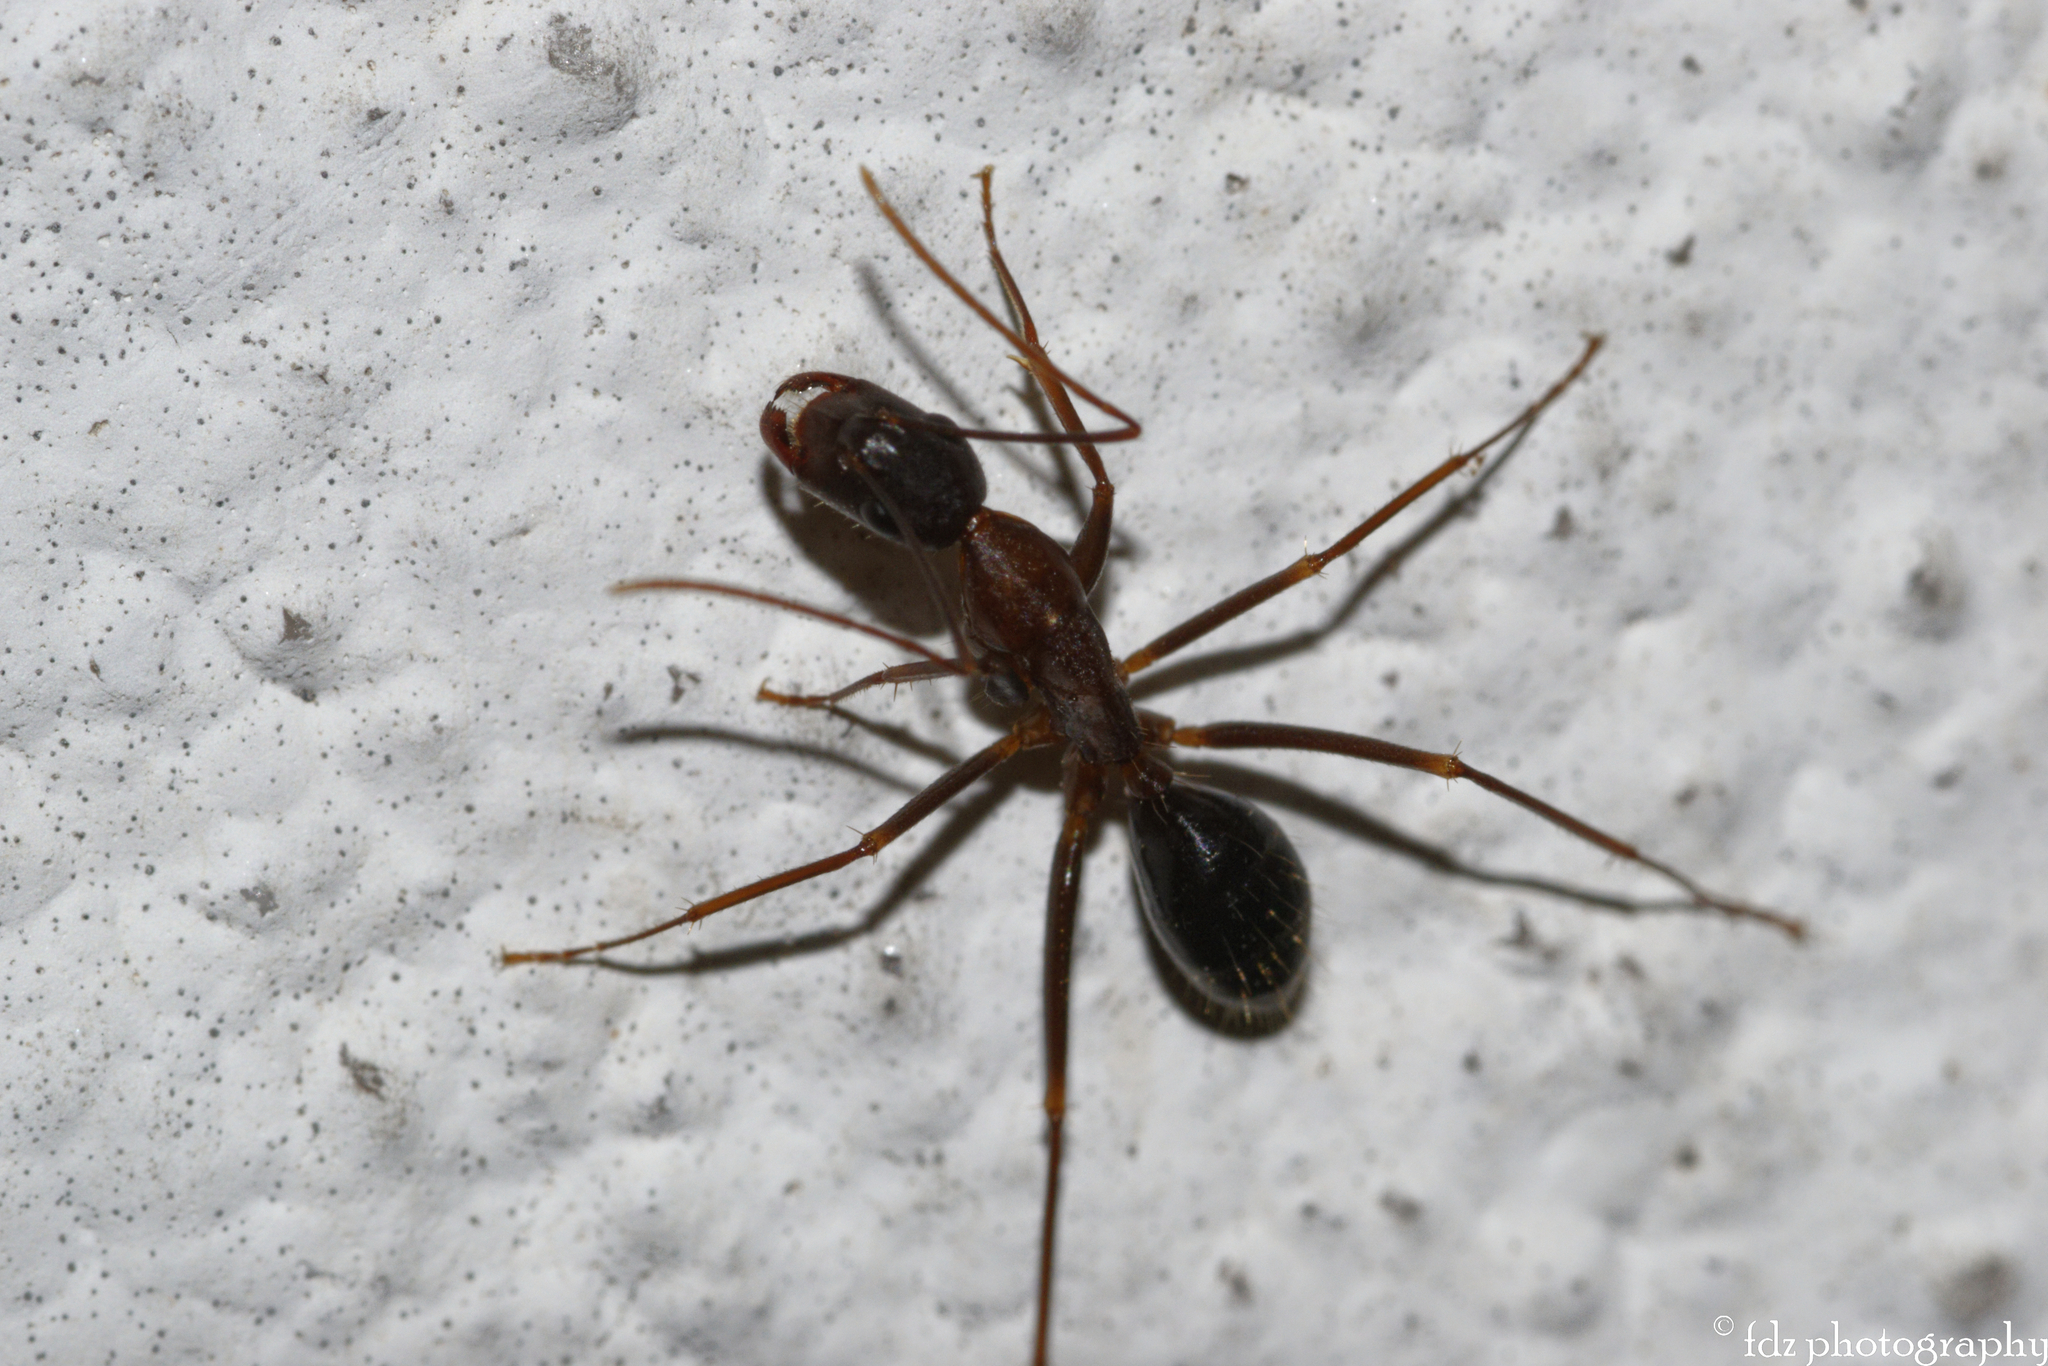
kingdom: Animalia
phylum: Arthropoda
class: Insecta
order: Hymenoptera
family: Formicidae
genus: Camponotus
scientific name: Camponotus sylvaticus
